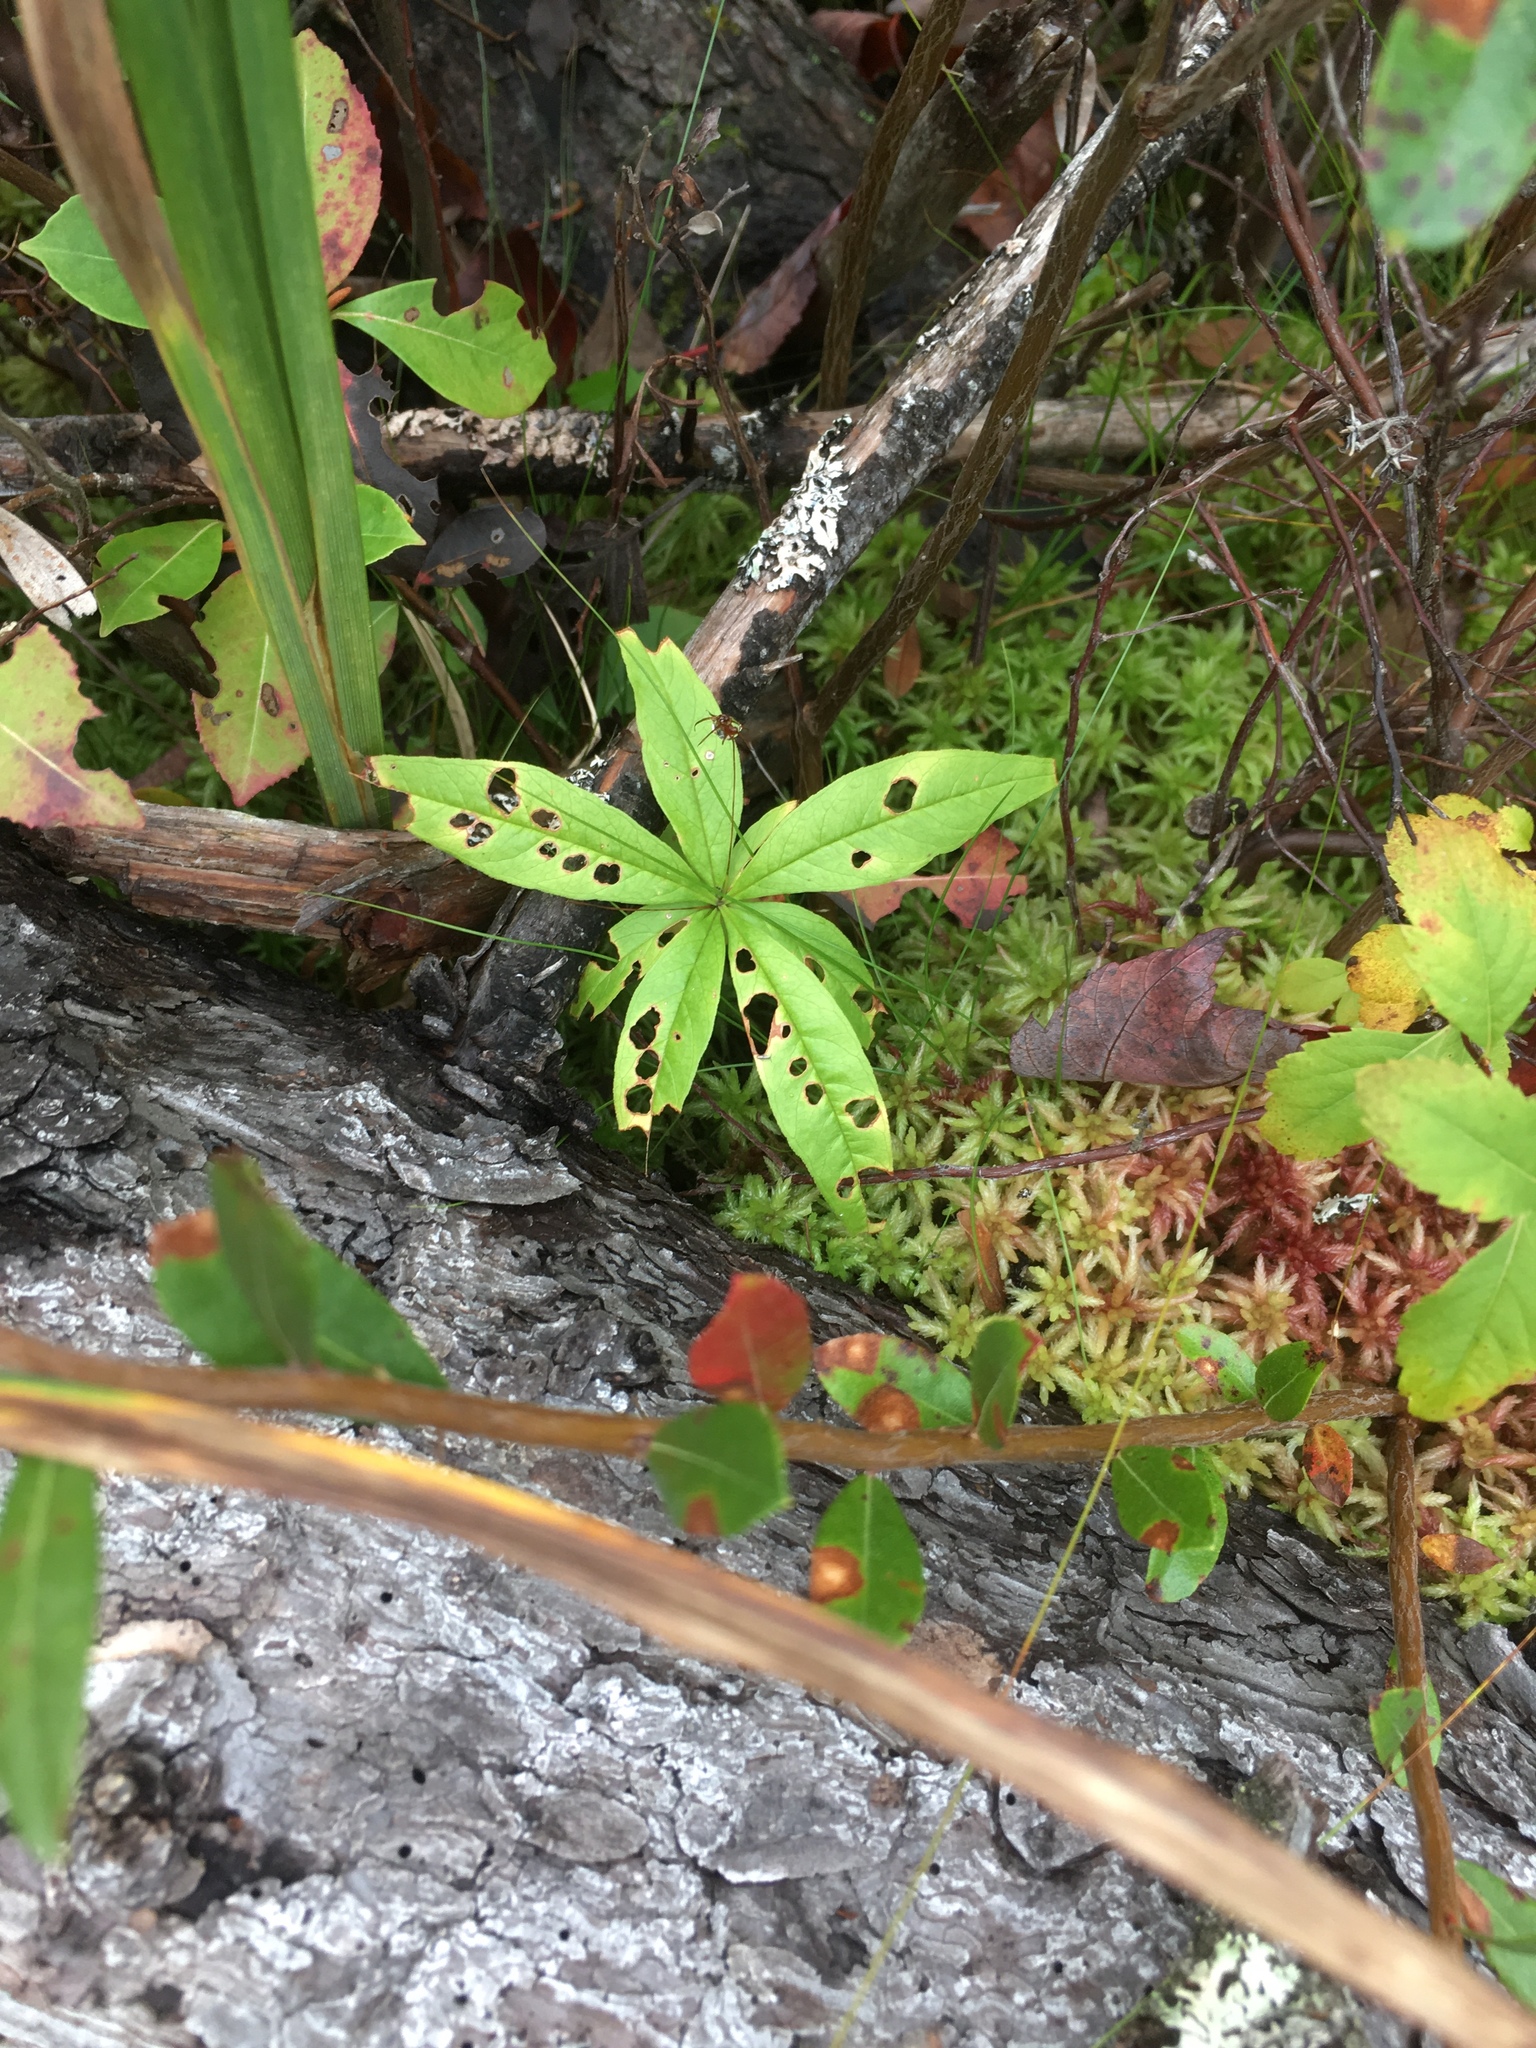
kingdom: Plantae
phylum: Tracheophyta
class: Magnoliopsida
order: Ericales
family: Primulaceae
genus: Lysimachia
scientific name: Lysimachia borealis
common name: American starflower
